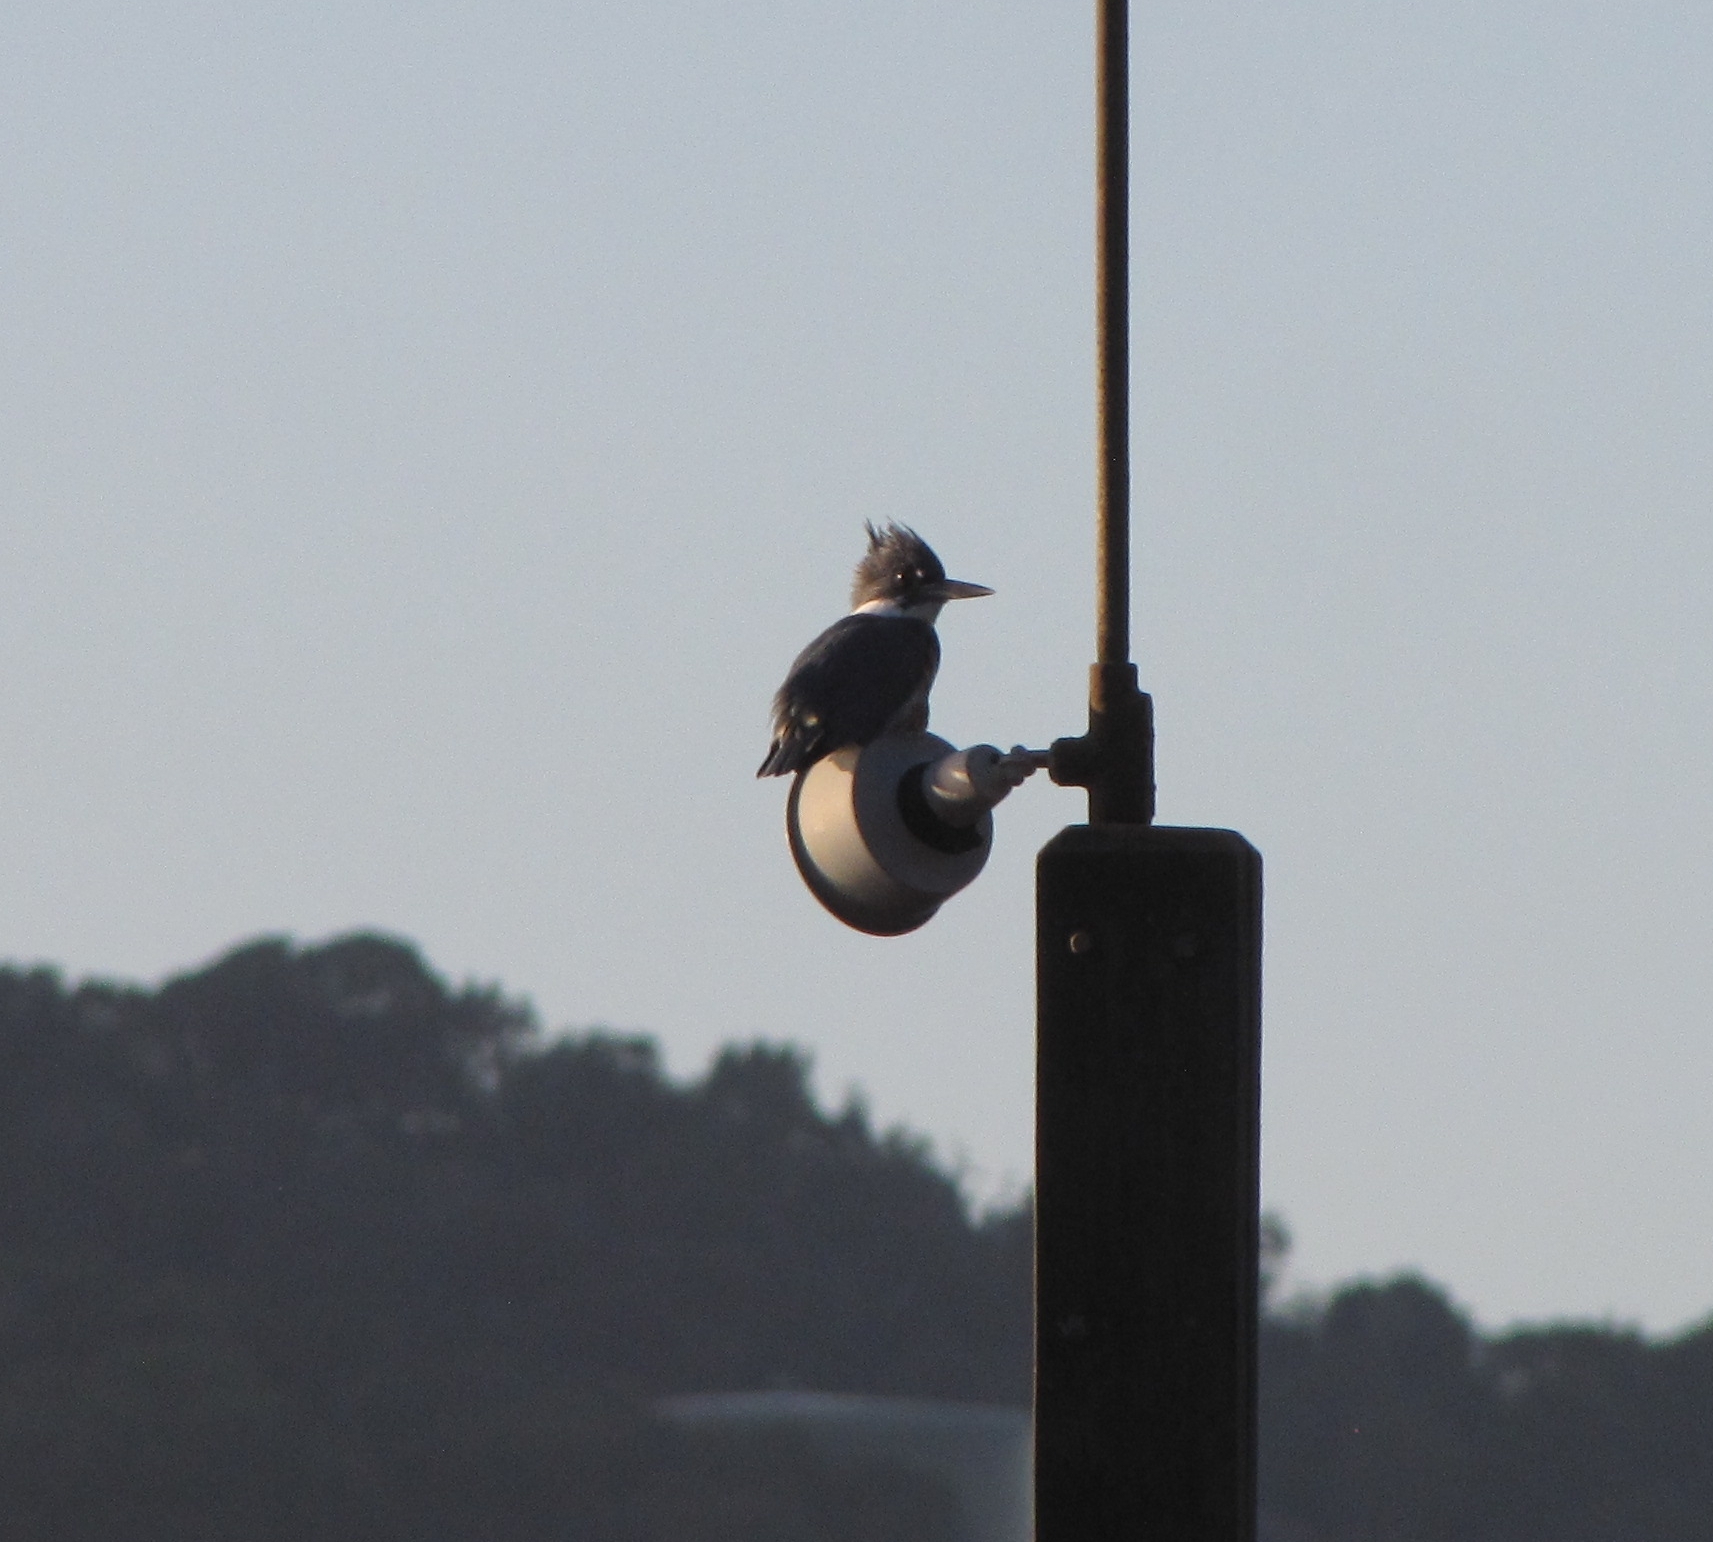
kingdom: Animalia
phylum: Chordata
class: Aves
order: Coraciiformes
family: Alcedinidae
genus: Megaceryle
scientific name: Megaceryle alcyon
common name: Belted kingfisher
